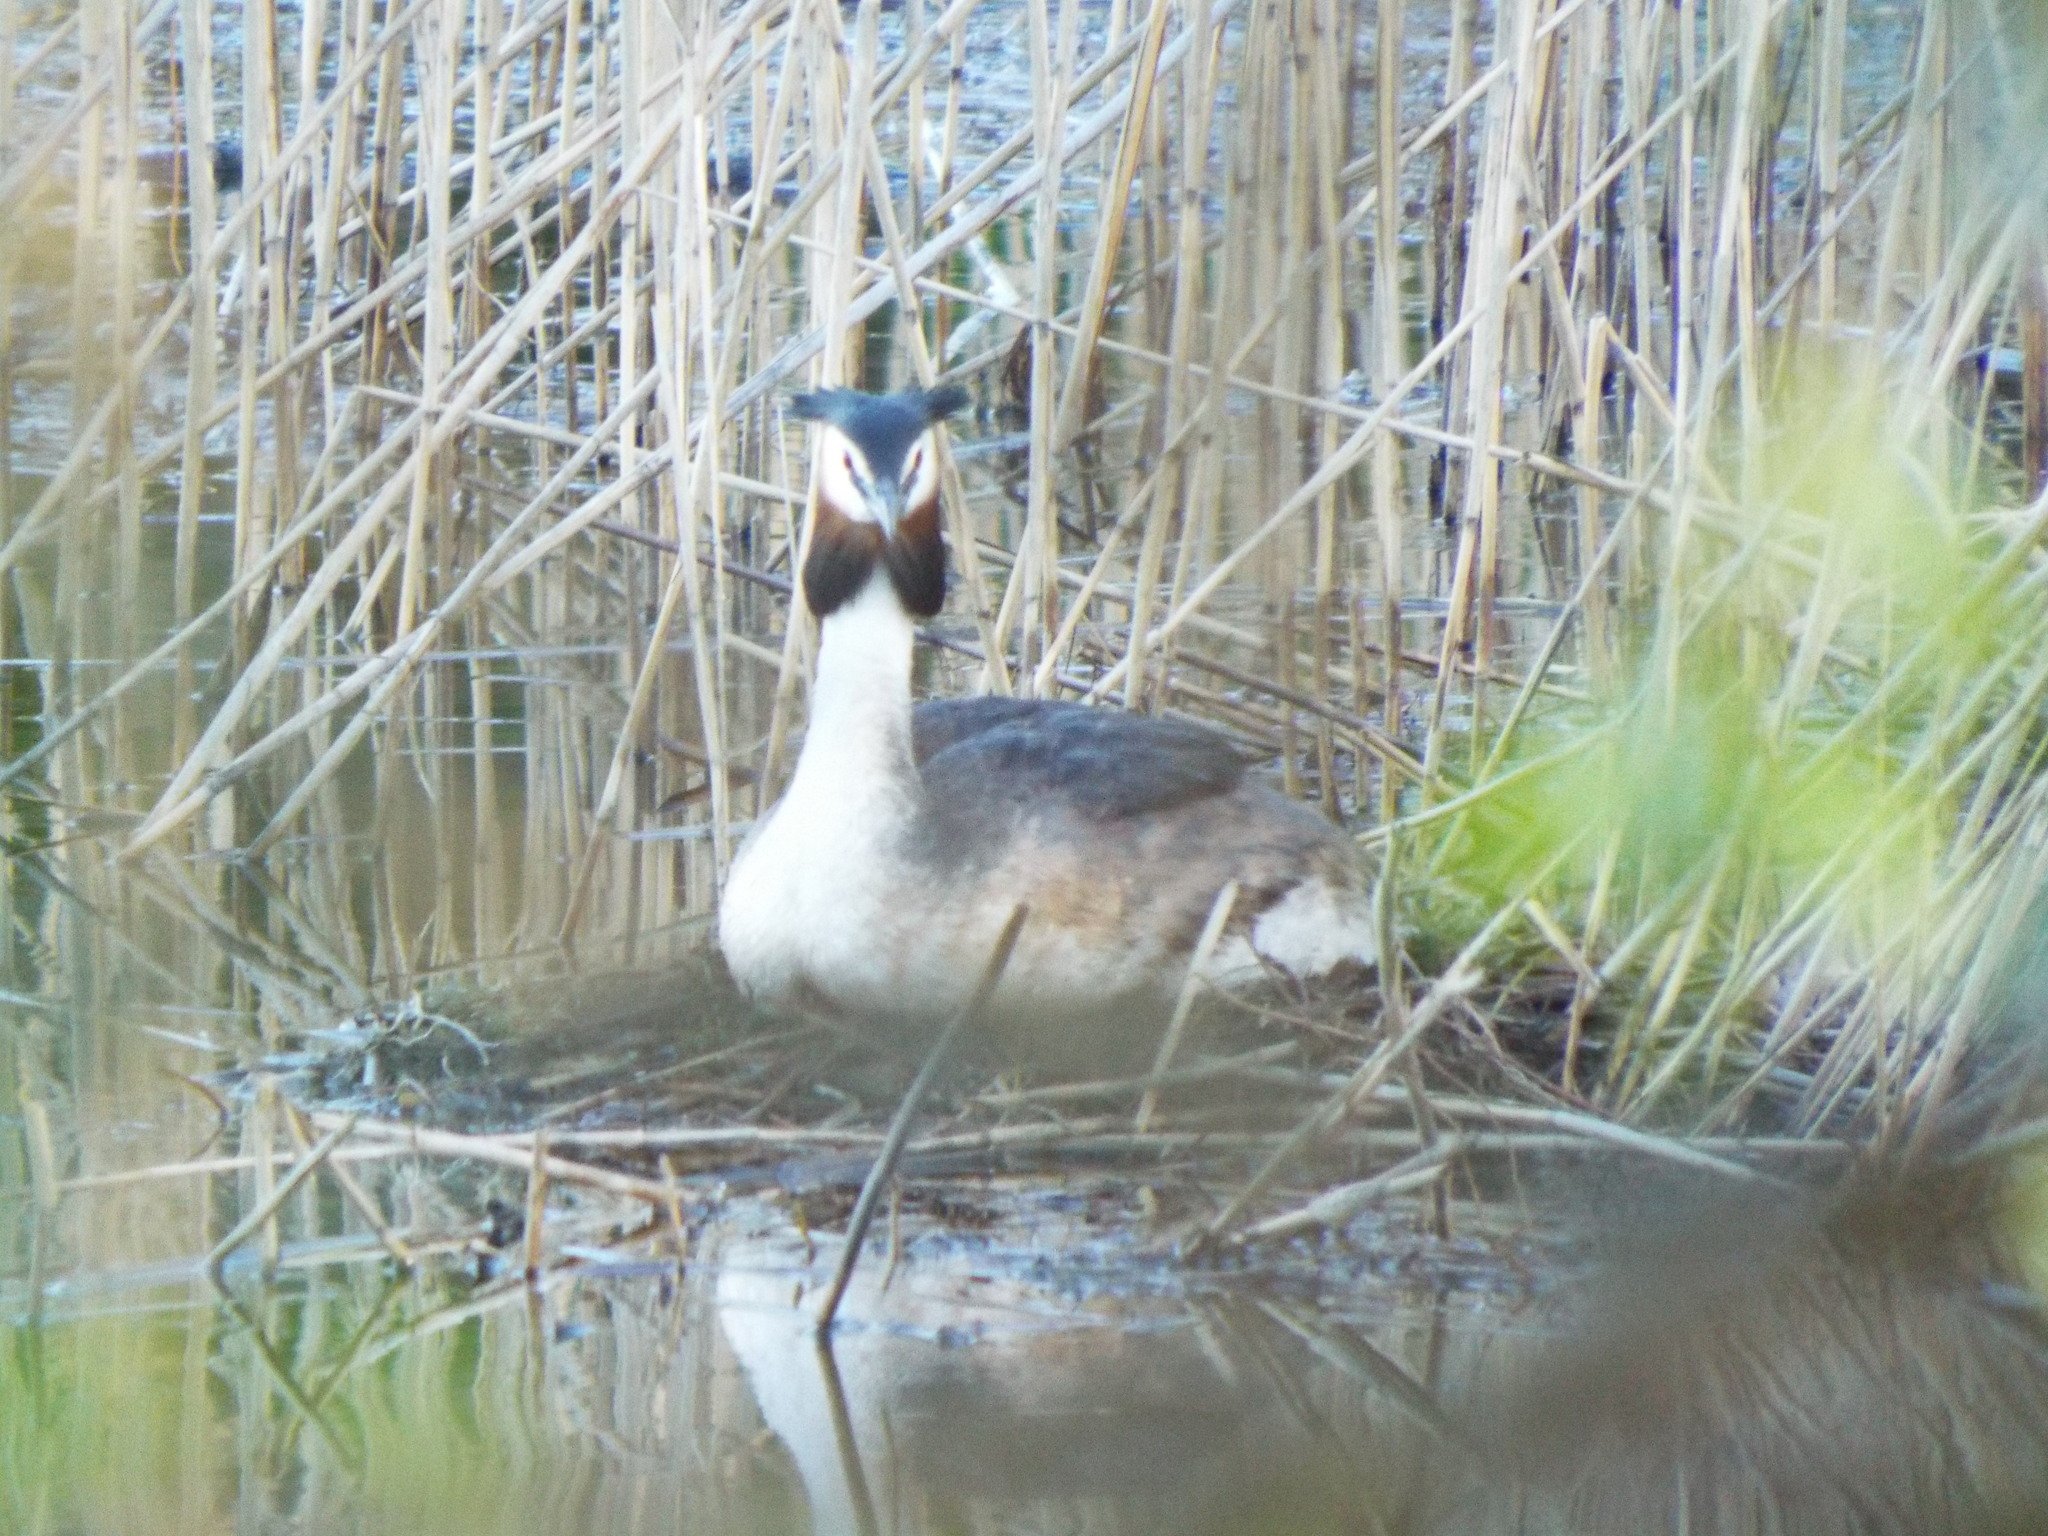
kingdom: Animalia
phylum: Chordata
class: Aves
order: Podicipediformes
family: Podicipedidae
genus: Podiceps
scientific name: Podiceps cristatus
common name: Great crested grebe
